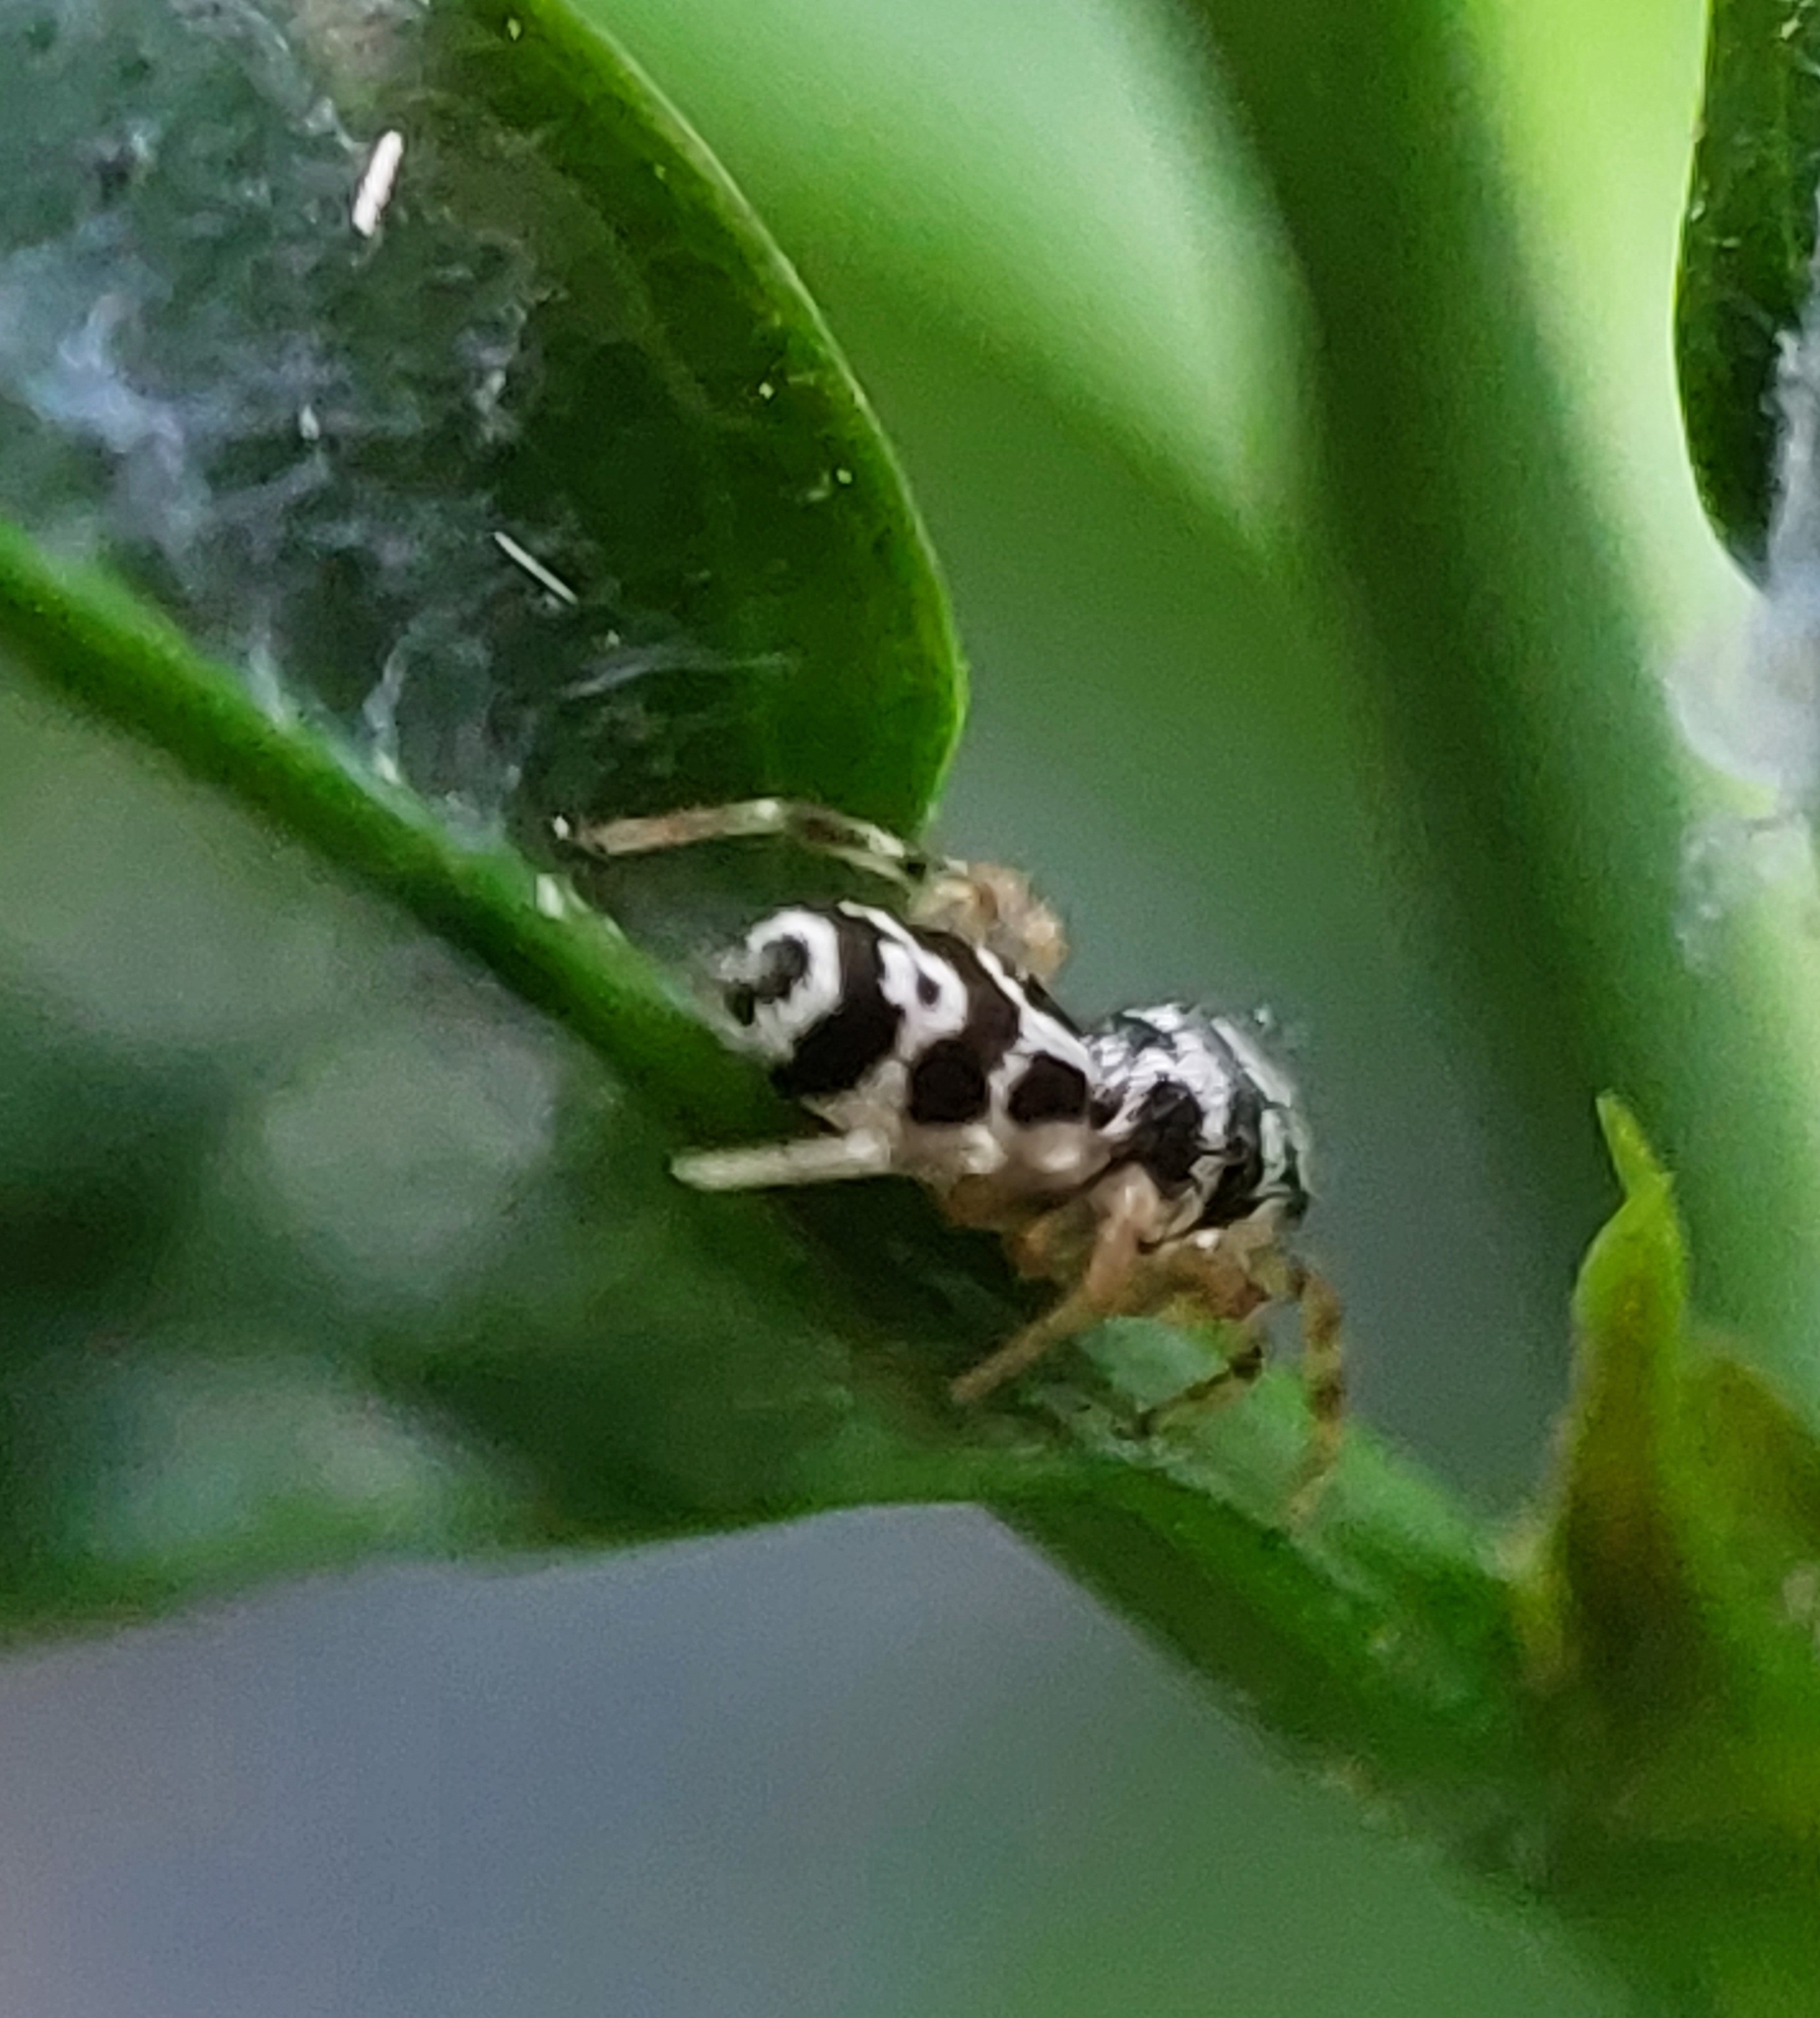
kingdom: Animalia
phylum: Arthropoda
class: Arachnida
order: Araneae
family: Salticidae
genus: Cyllodania
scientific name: Cyllodania bicruciata
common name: Jumping spiders
